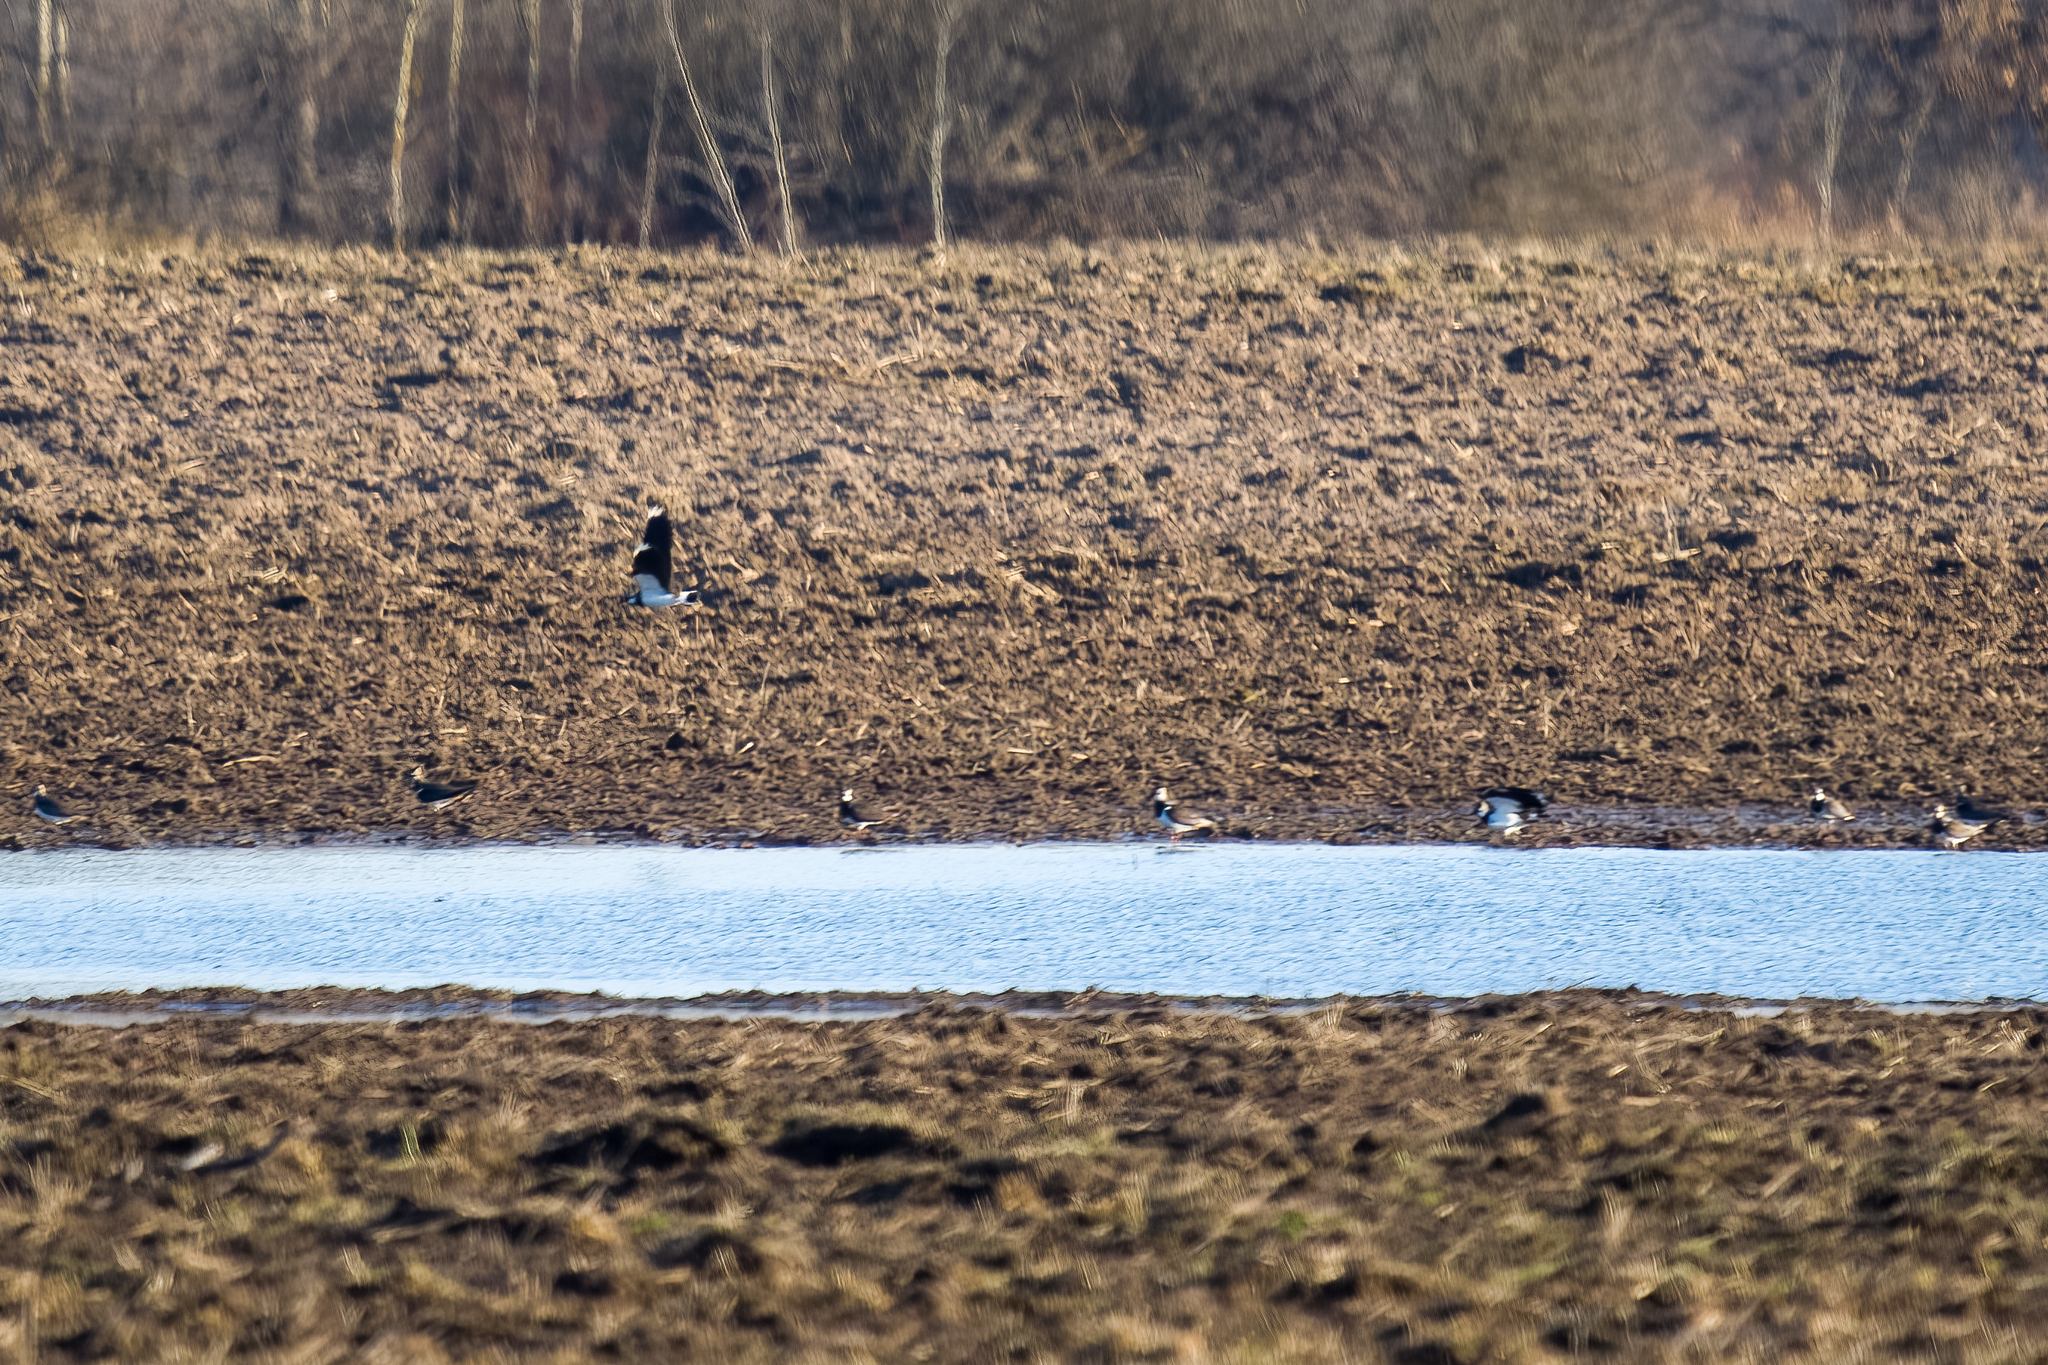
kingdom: Animalia
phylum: Chordata
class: Aves
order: Charadriiformes
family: Charadriidae
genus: Vanellus
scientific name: Vanellus vanellus
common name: Northern lapwing
